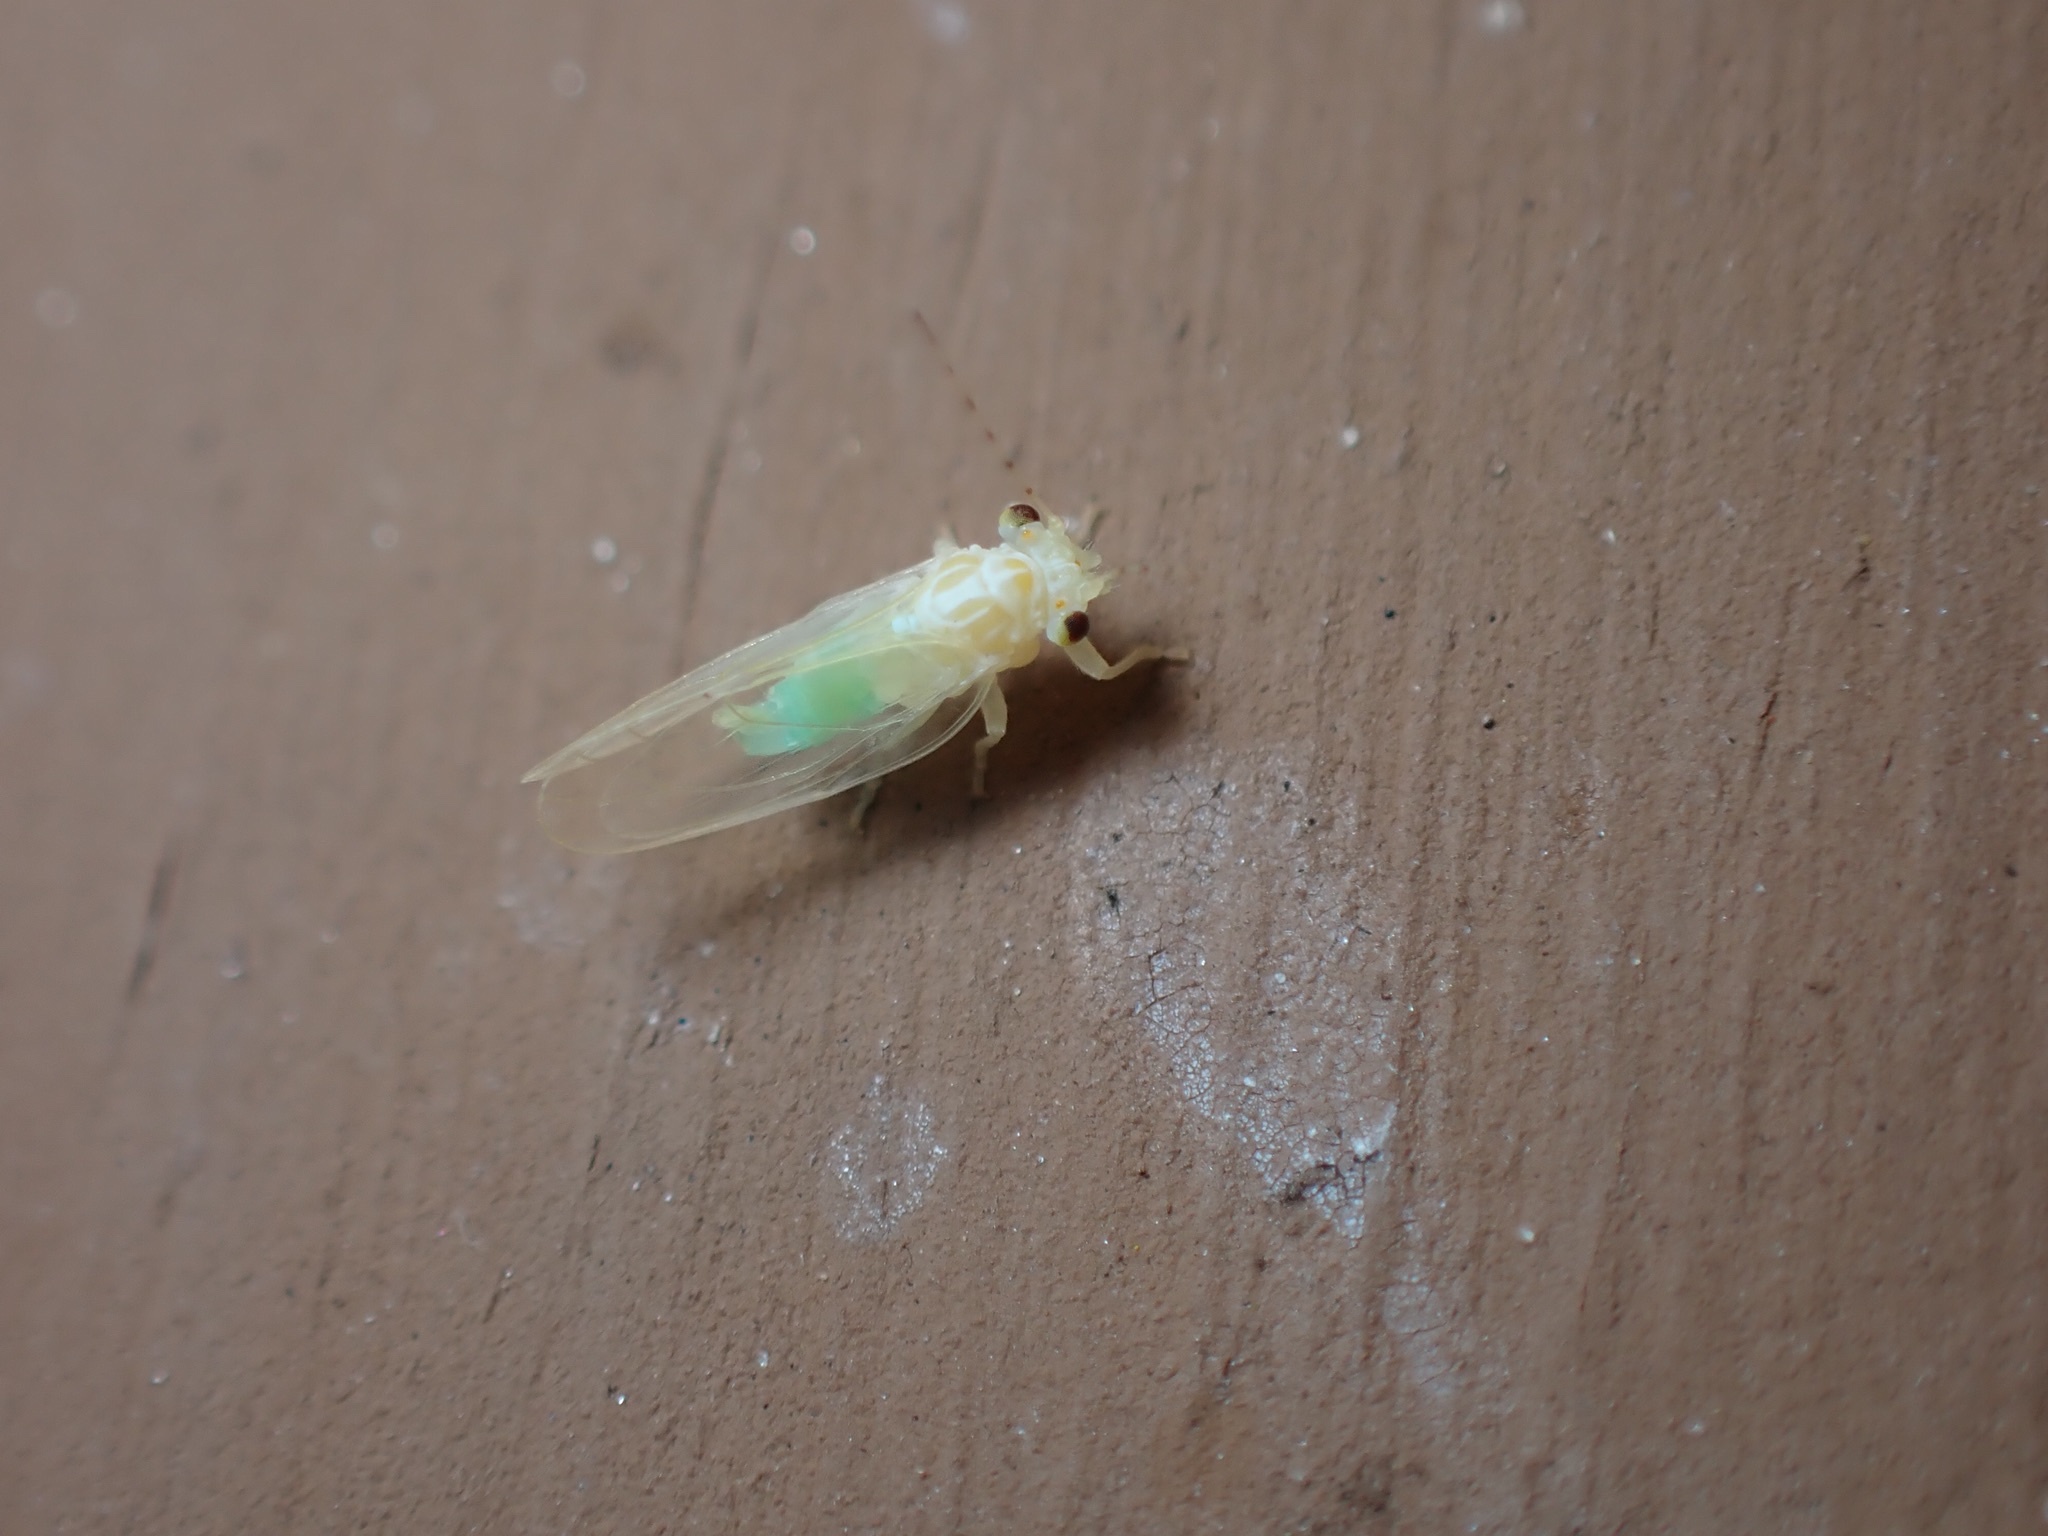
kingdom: Animalia
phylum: Arthropoda
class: Insecta
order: Hemiptera
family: Psyllidae
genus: Cacopsylla
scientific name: Cacopsylla annulata
